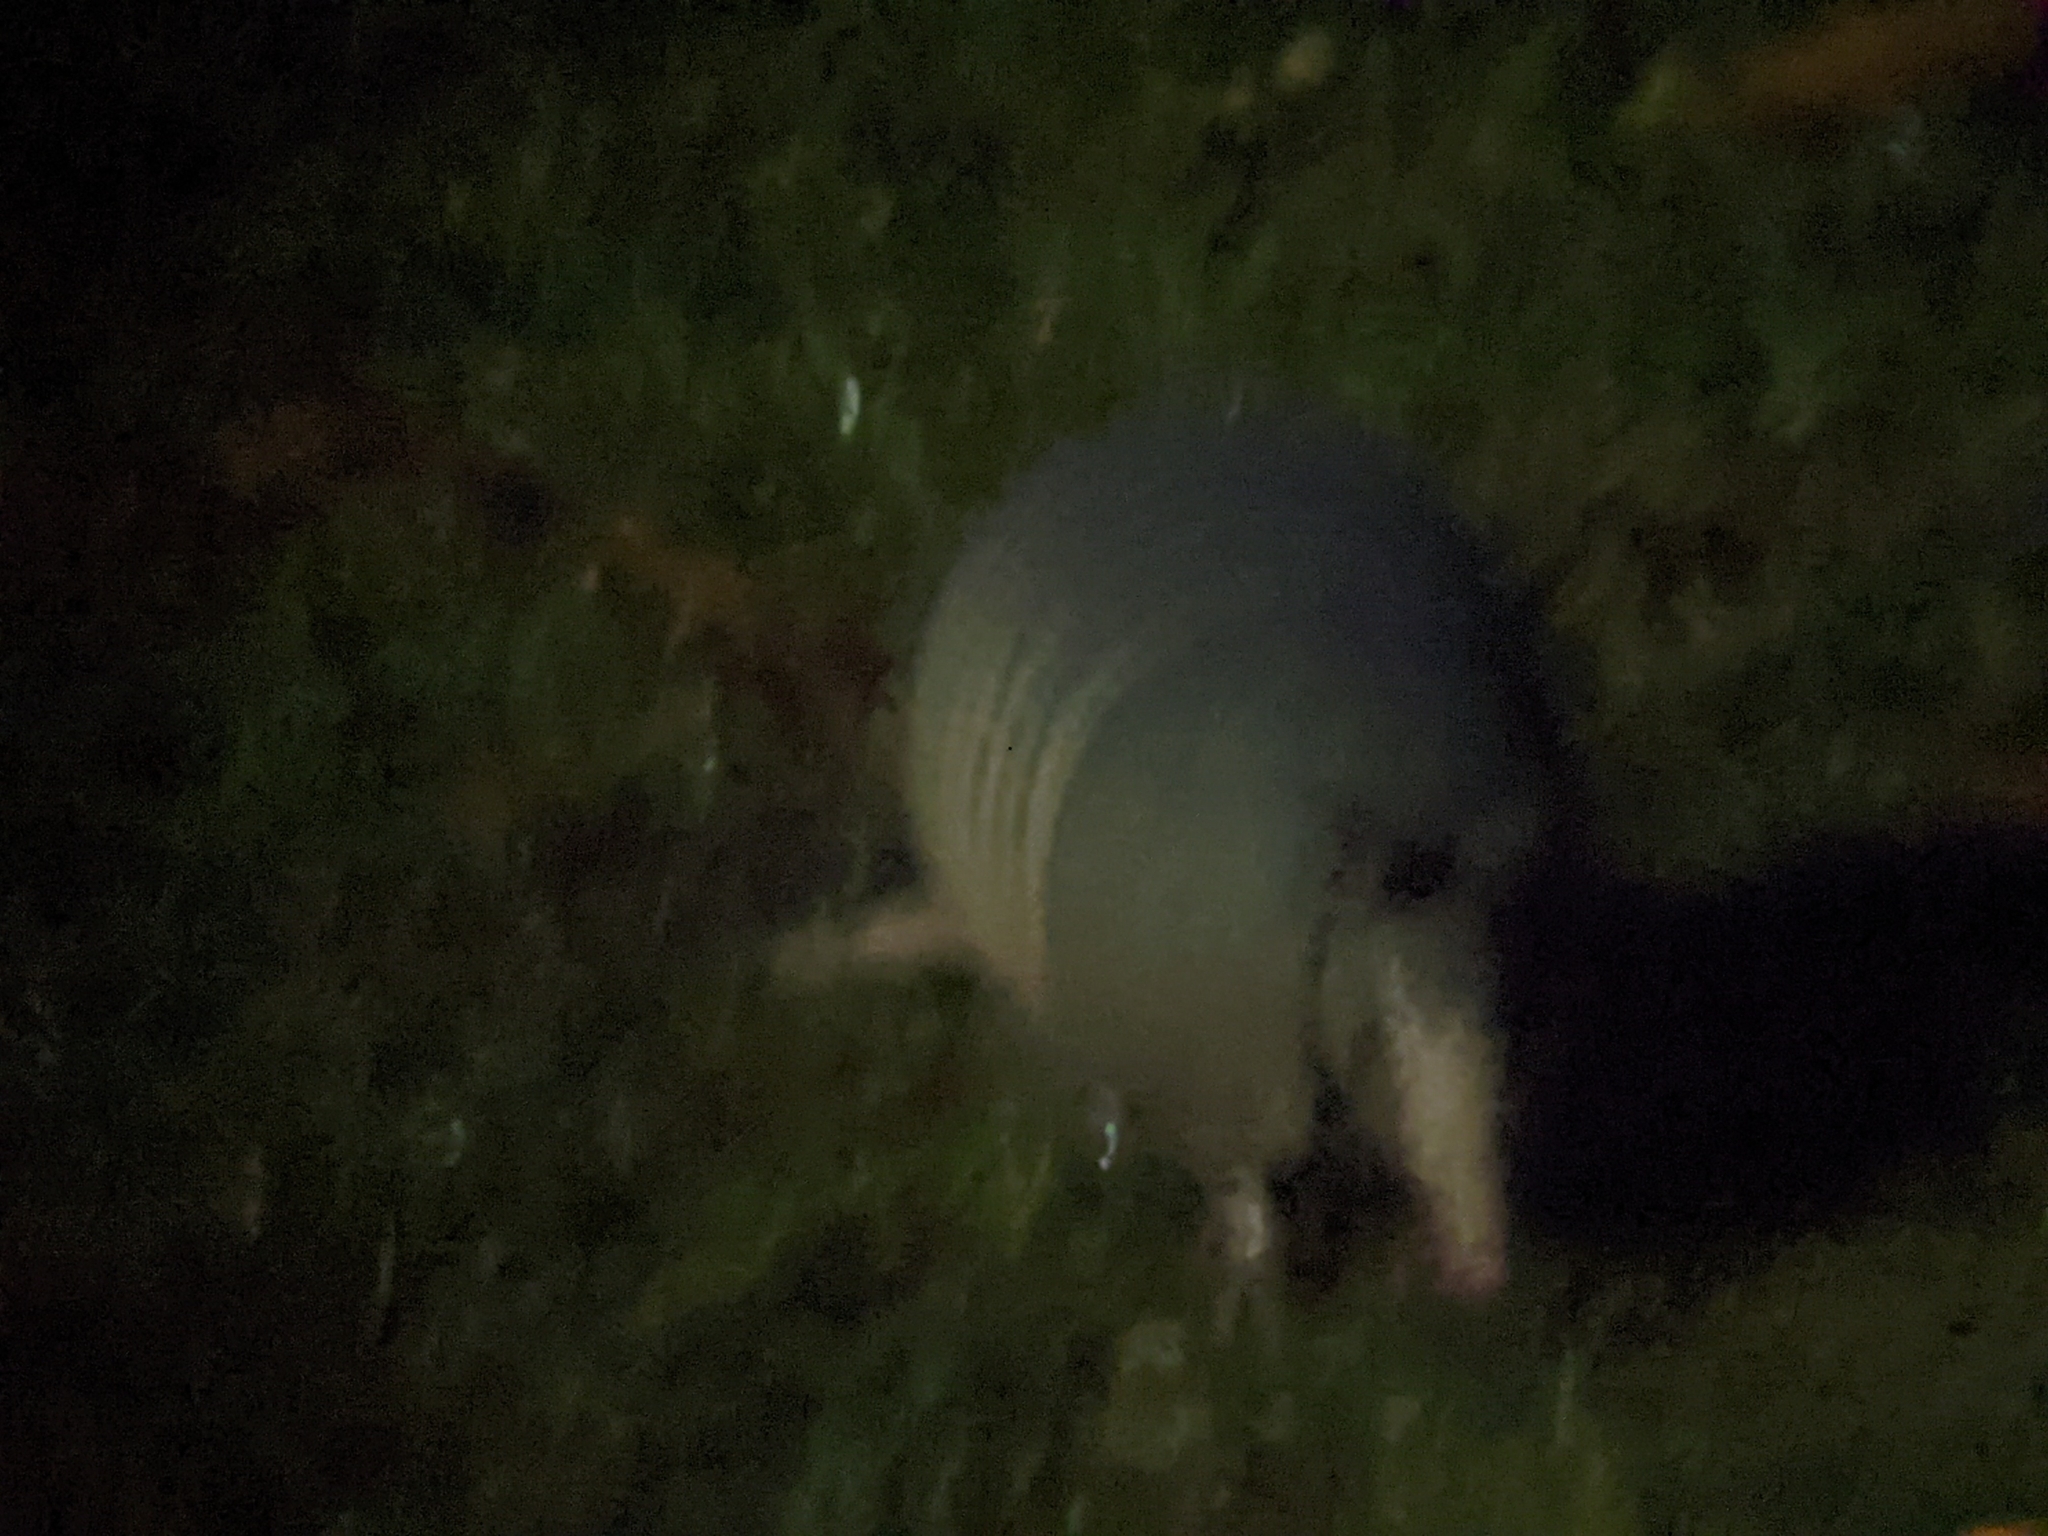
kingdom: Animalia
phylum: Chordata
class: Mammalia
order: Cingulata
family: Dasypodidae
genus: Dasypus
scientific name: Dasypus novemcinctus
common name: Nine-banded armadillo
